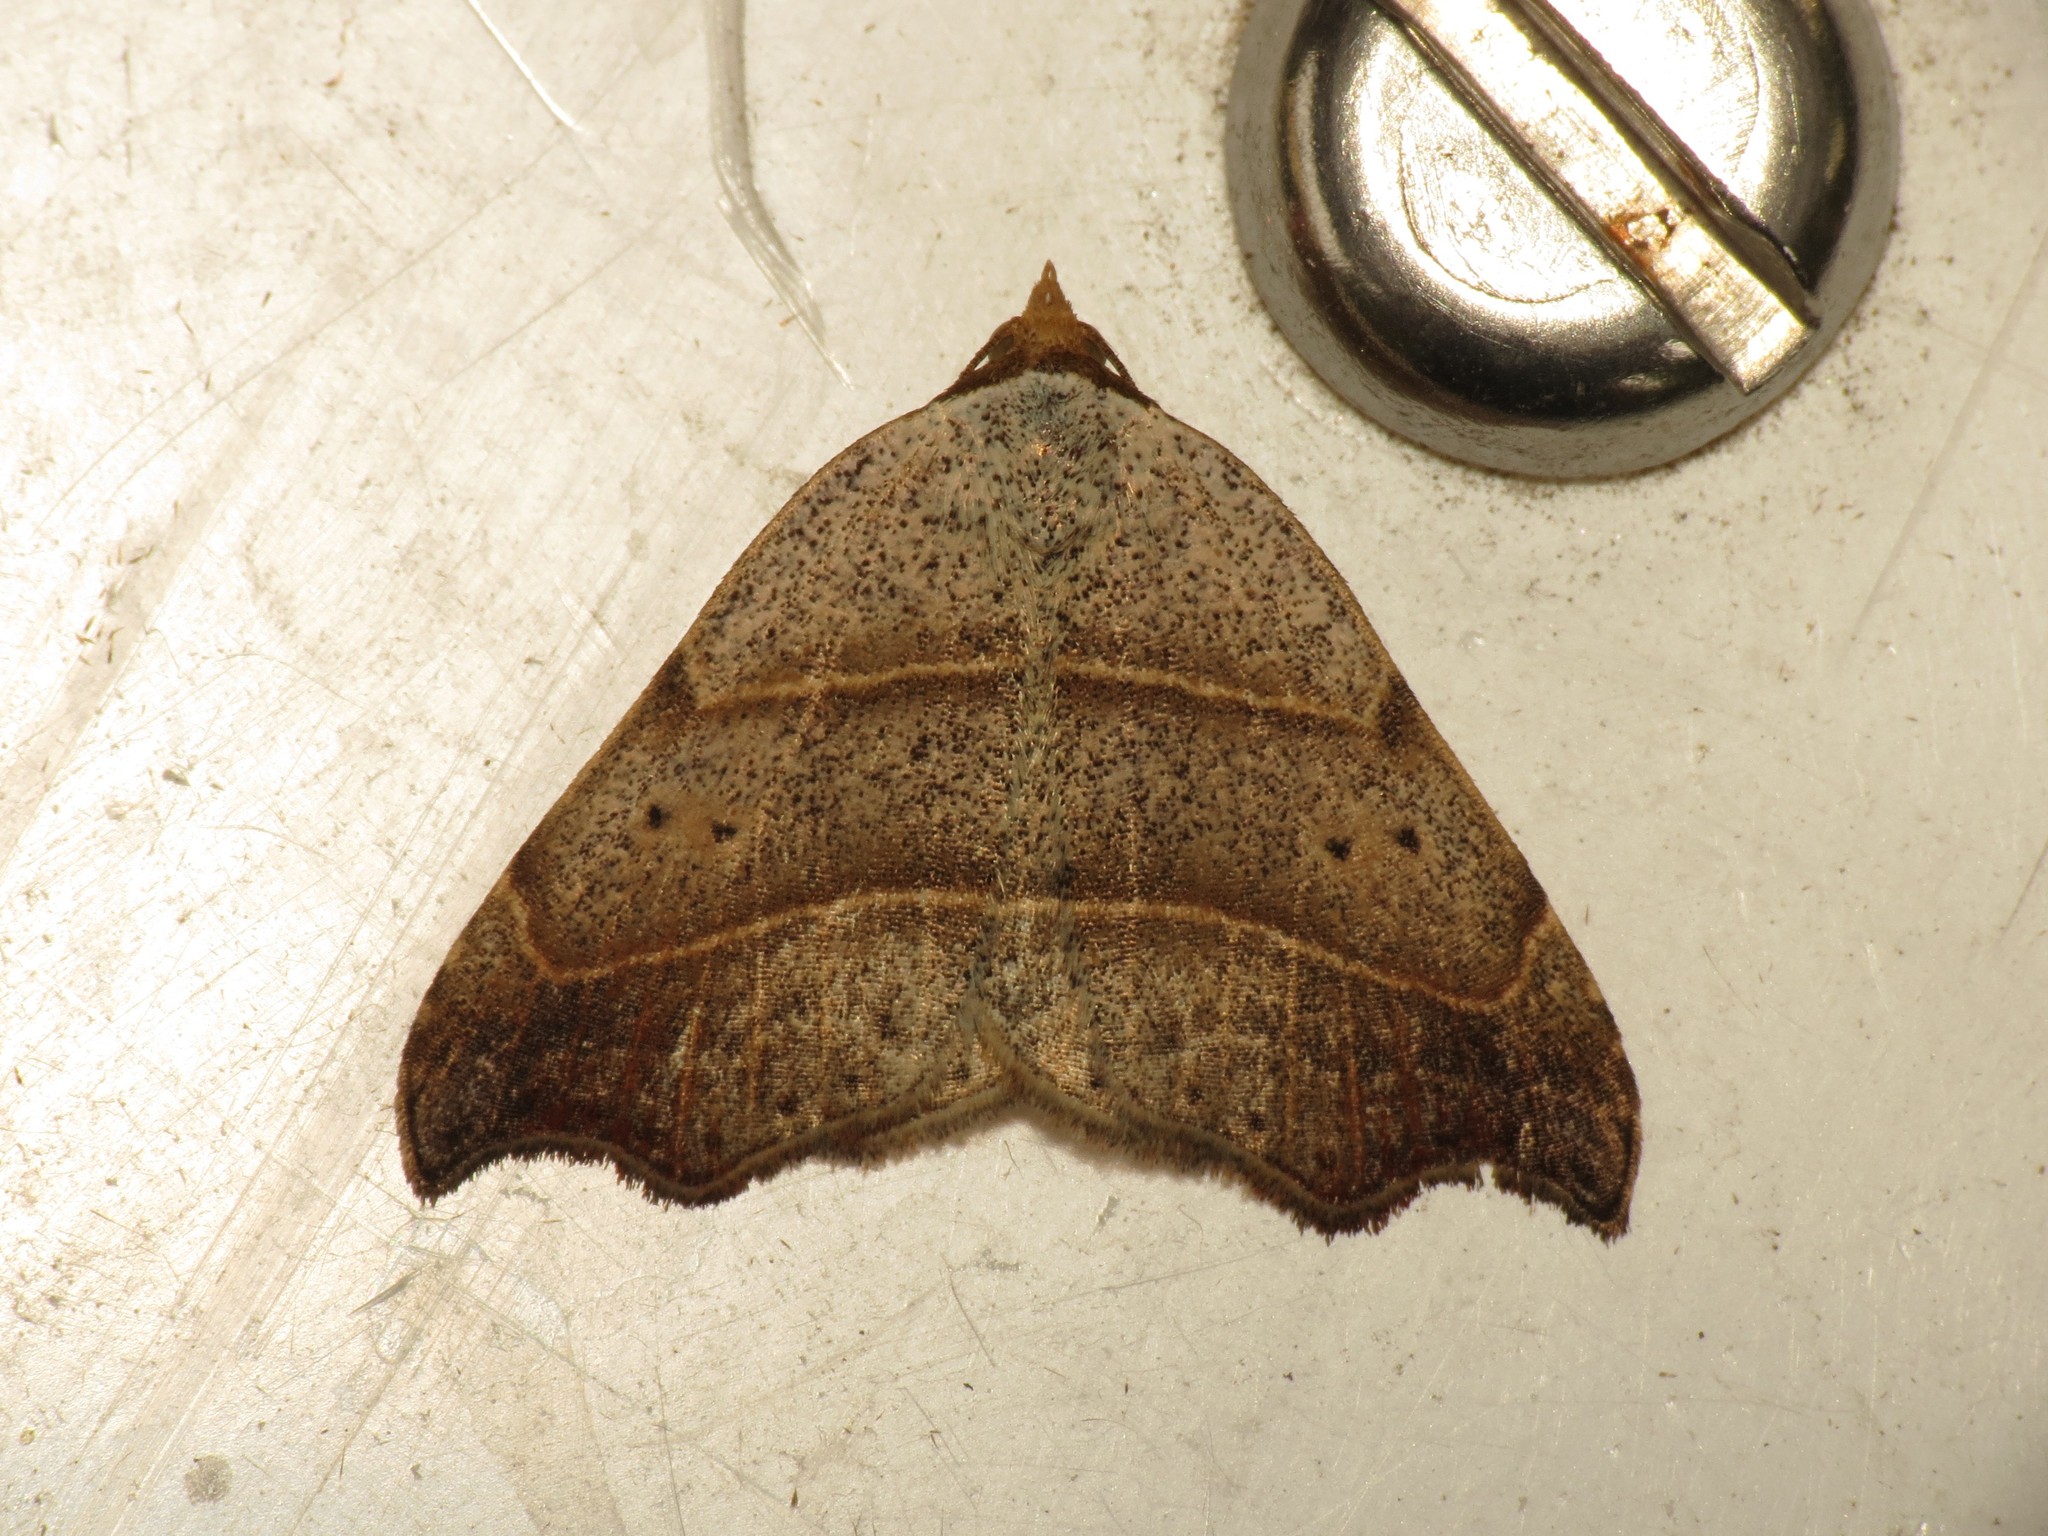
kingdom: Animalia
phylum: Arthropoda
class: Insecta
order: Lepidoptera
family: Erebidae
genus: Laspeyria
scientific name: Laspeyria flexula
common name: Beautiful hook-tip
